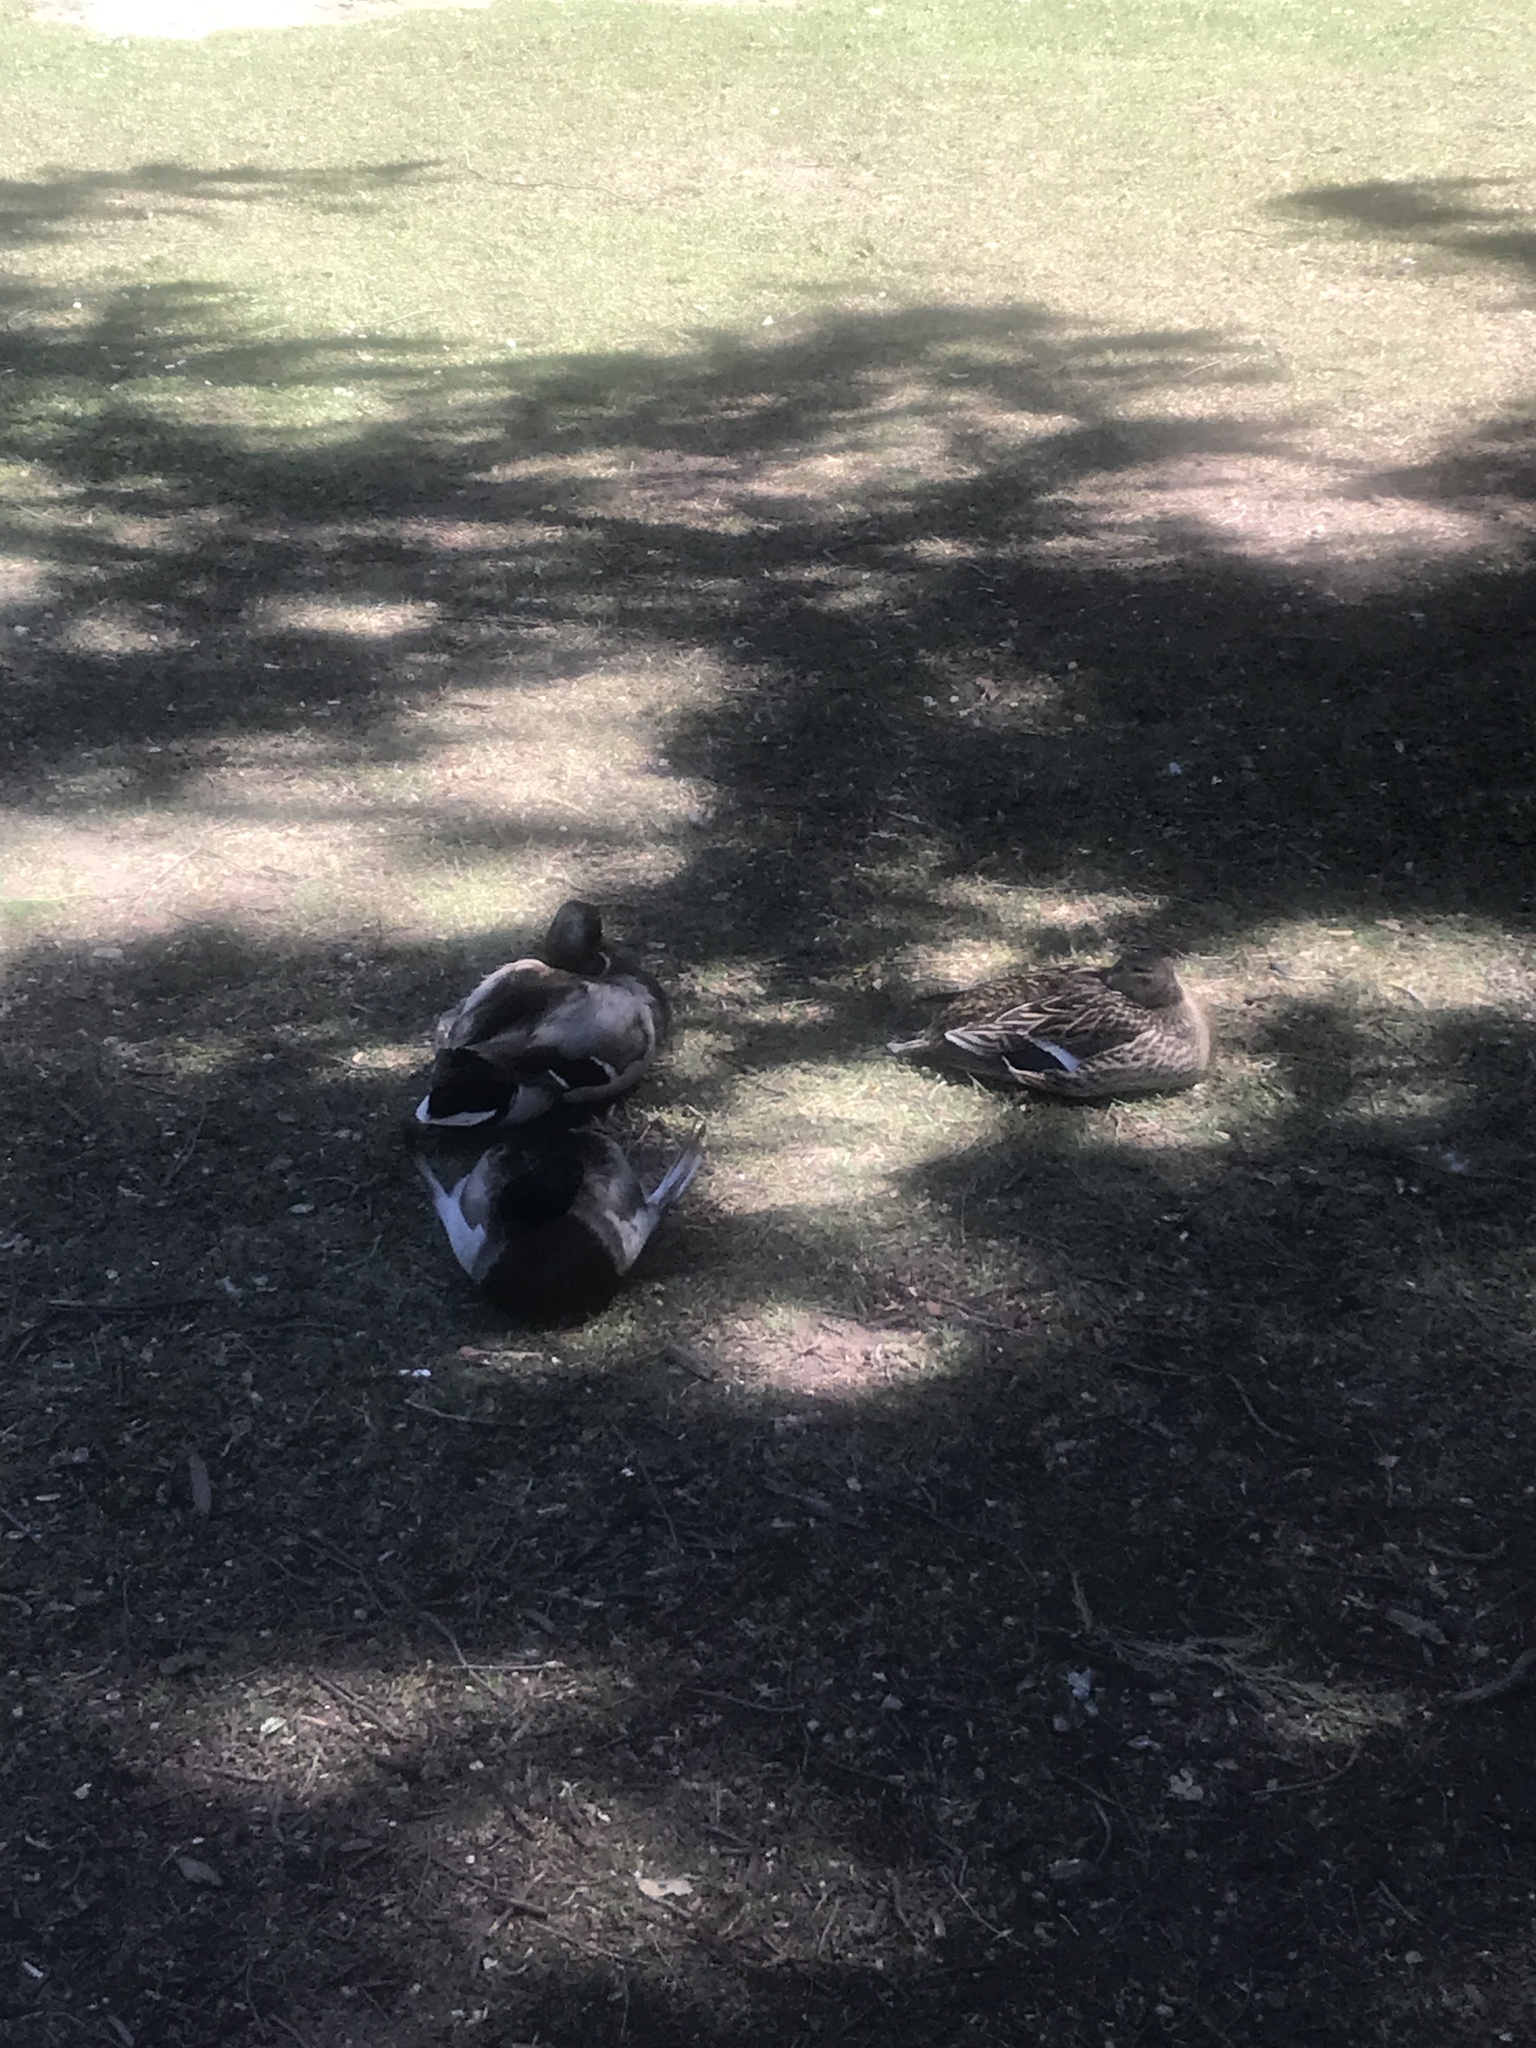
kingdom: Animalia
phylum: Chordata
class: Aves
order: Anseriformes
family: Anatidae
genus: Anas
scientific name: Anas platyrhynchos
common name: Mallard
